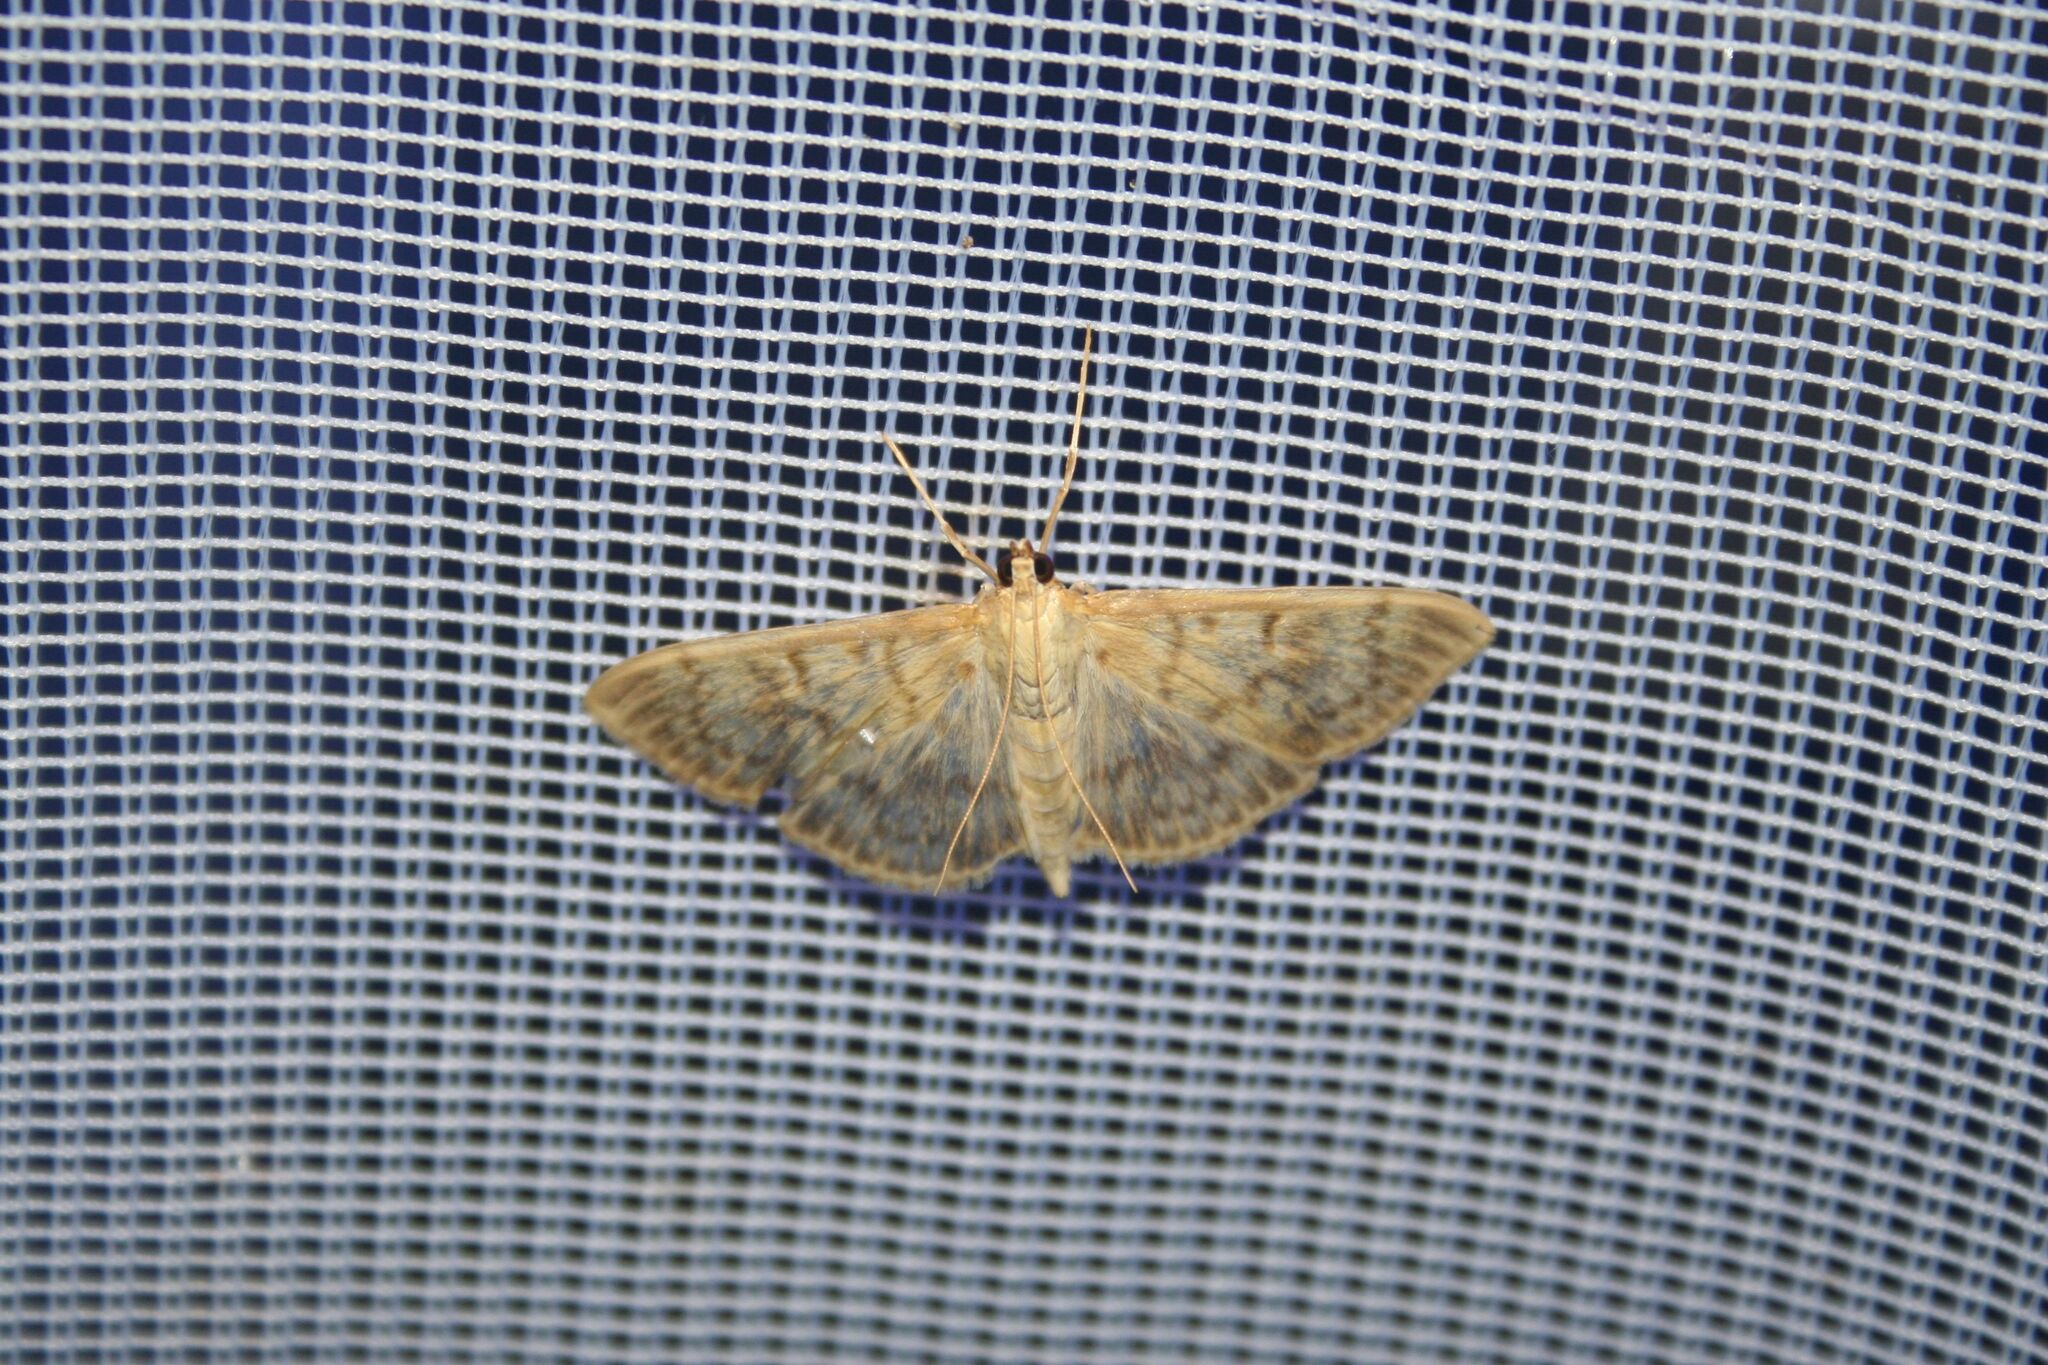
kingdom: Animalia
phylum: Arthropoda
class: Insecta
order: Lepidoptera
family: Crambidae
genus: Patania
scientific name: Patania ruralis
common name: Mother of pearl
